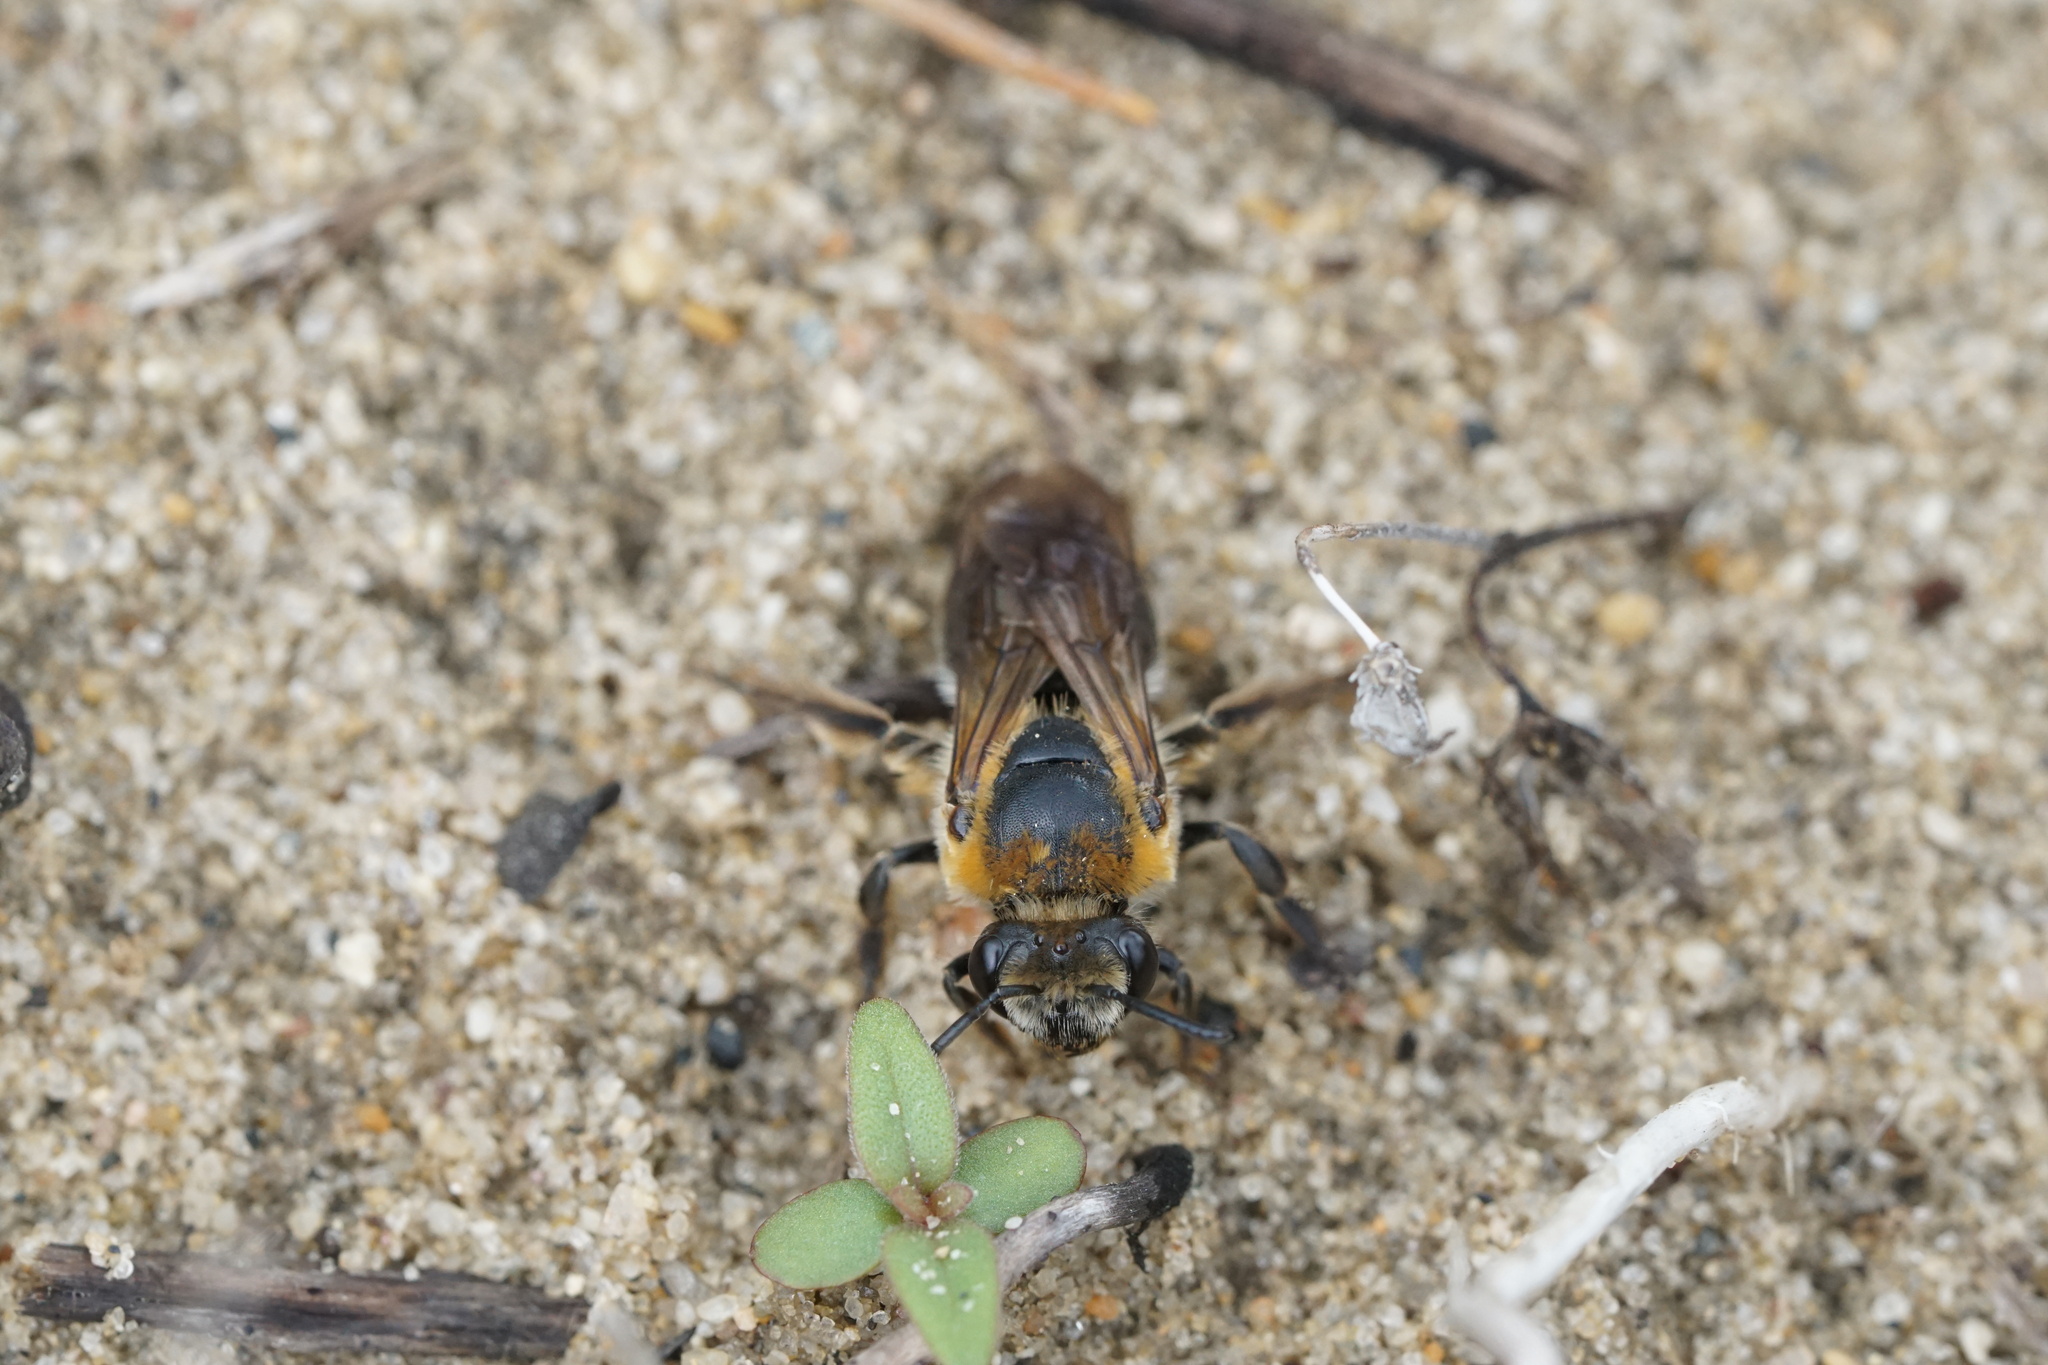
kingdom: Animalia
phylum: Arthropoda
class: Insecta
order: Hymenoptera
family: Colletidae
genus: Colletes
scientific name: Colletes thoracicus
